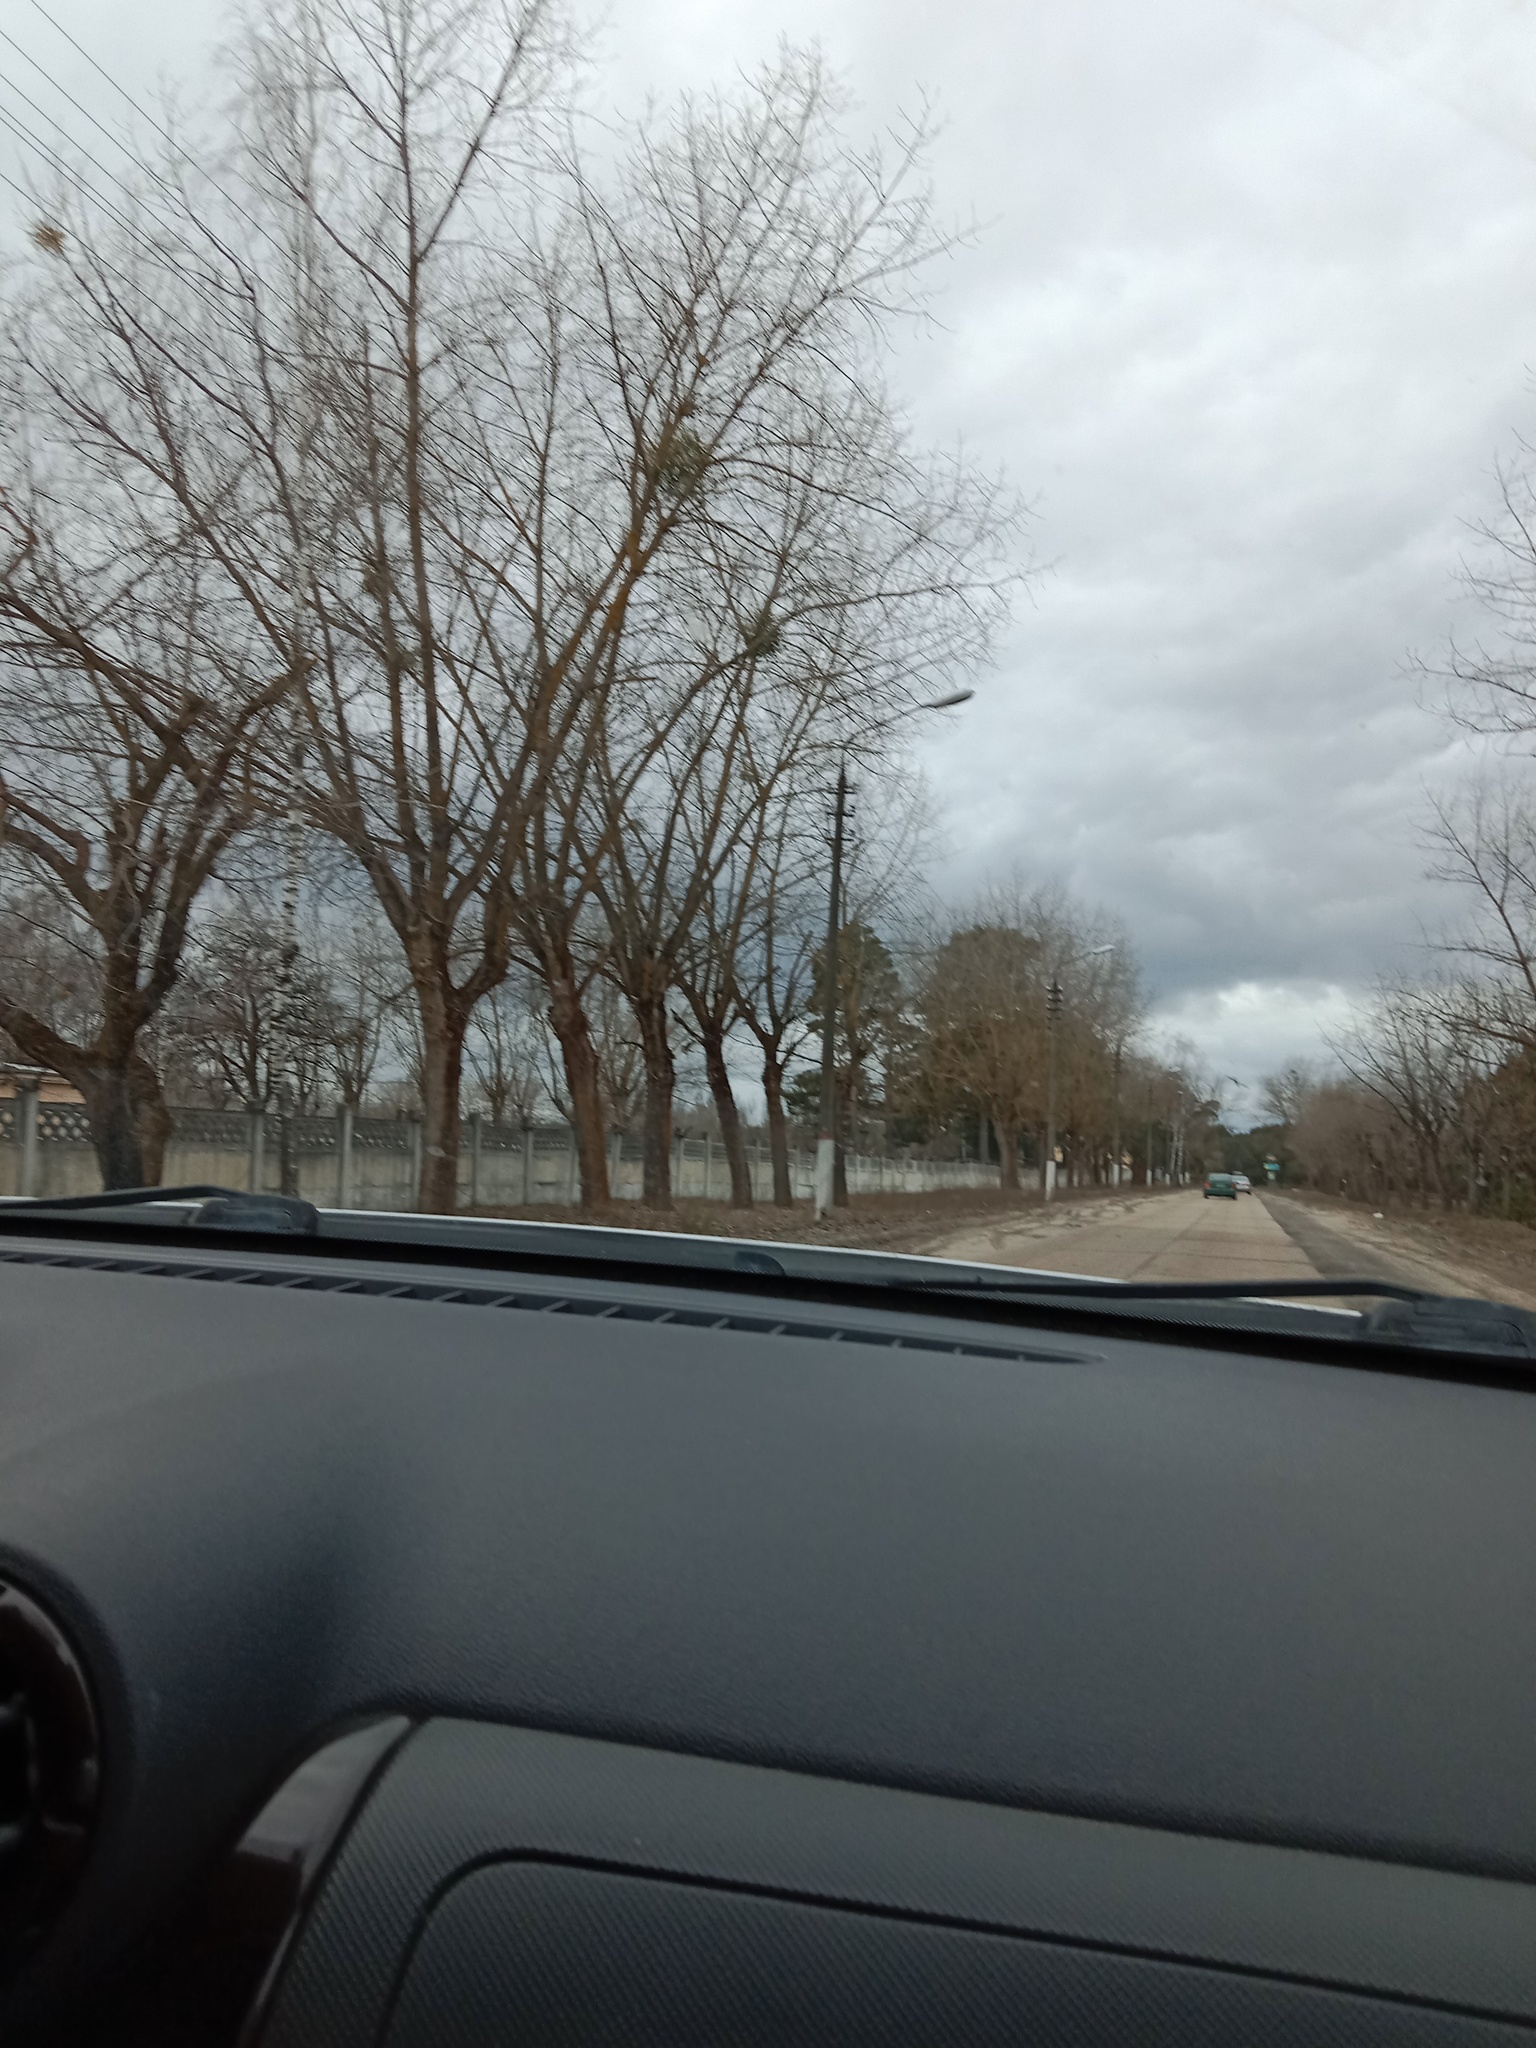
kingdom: Plantae
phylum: Tracheophyta
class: Magnoliopsida
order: Santalales
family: Viscaceae
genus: Viscum
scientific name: Viscum album
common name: Mistletoe
